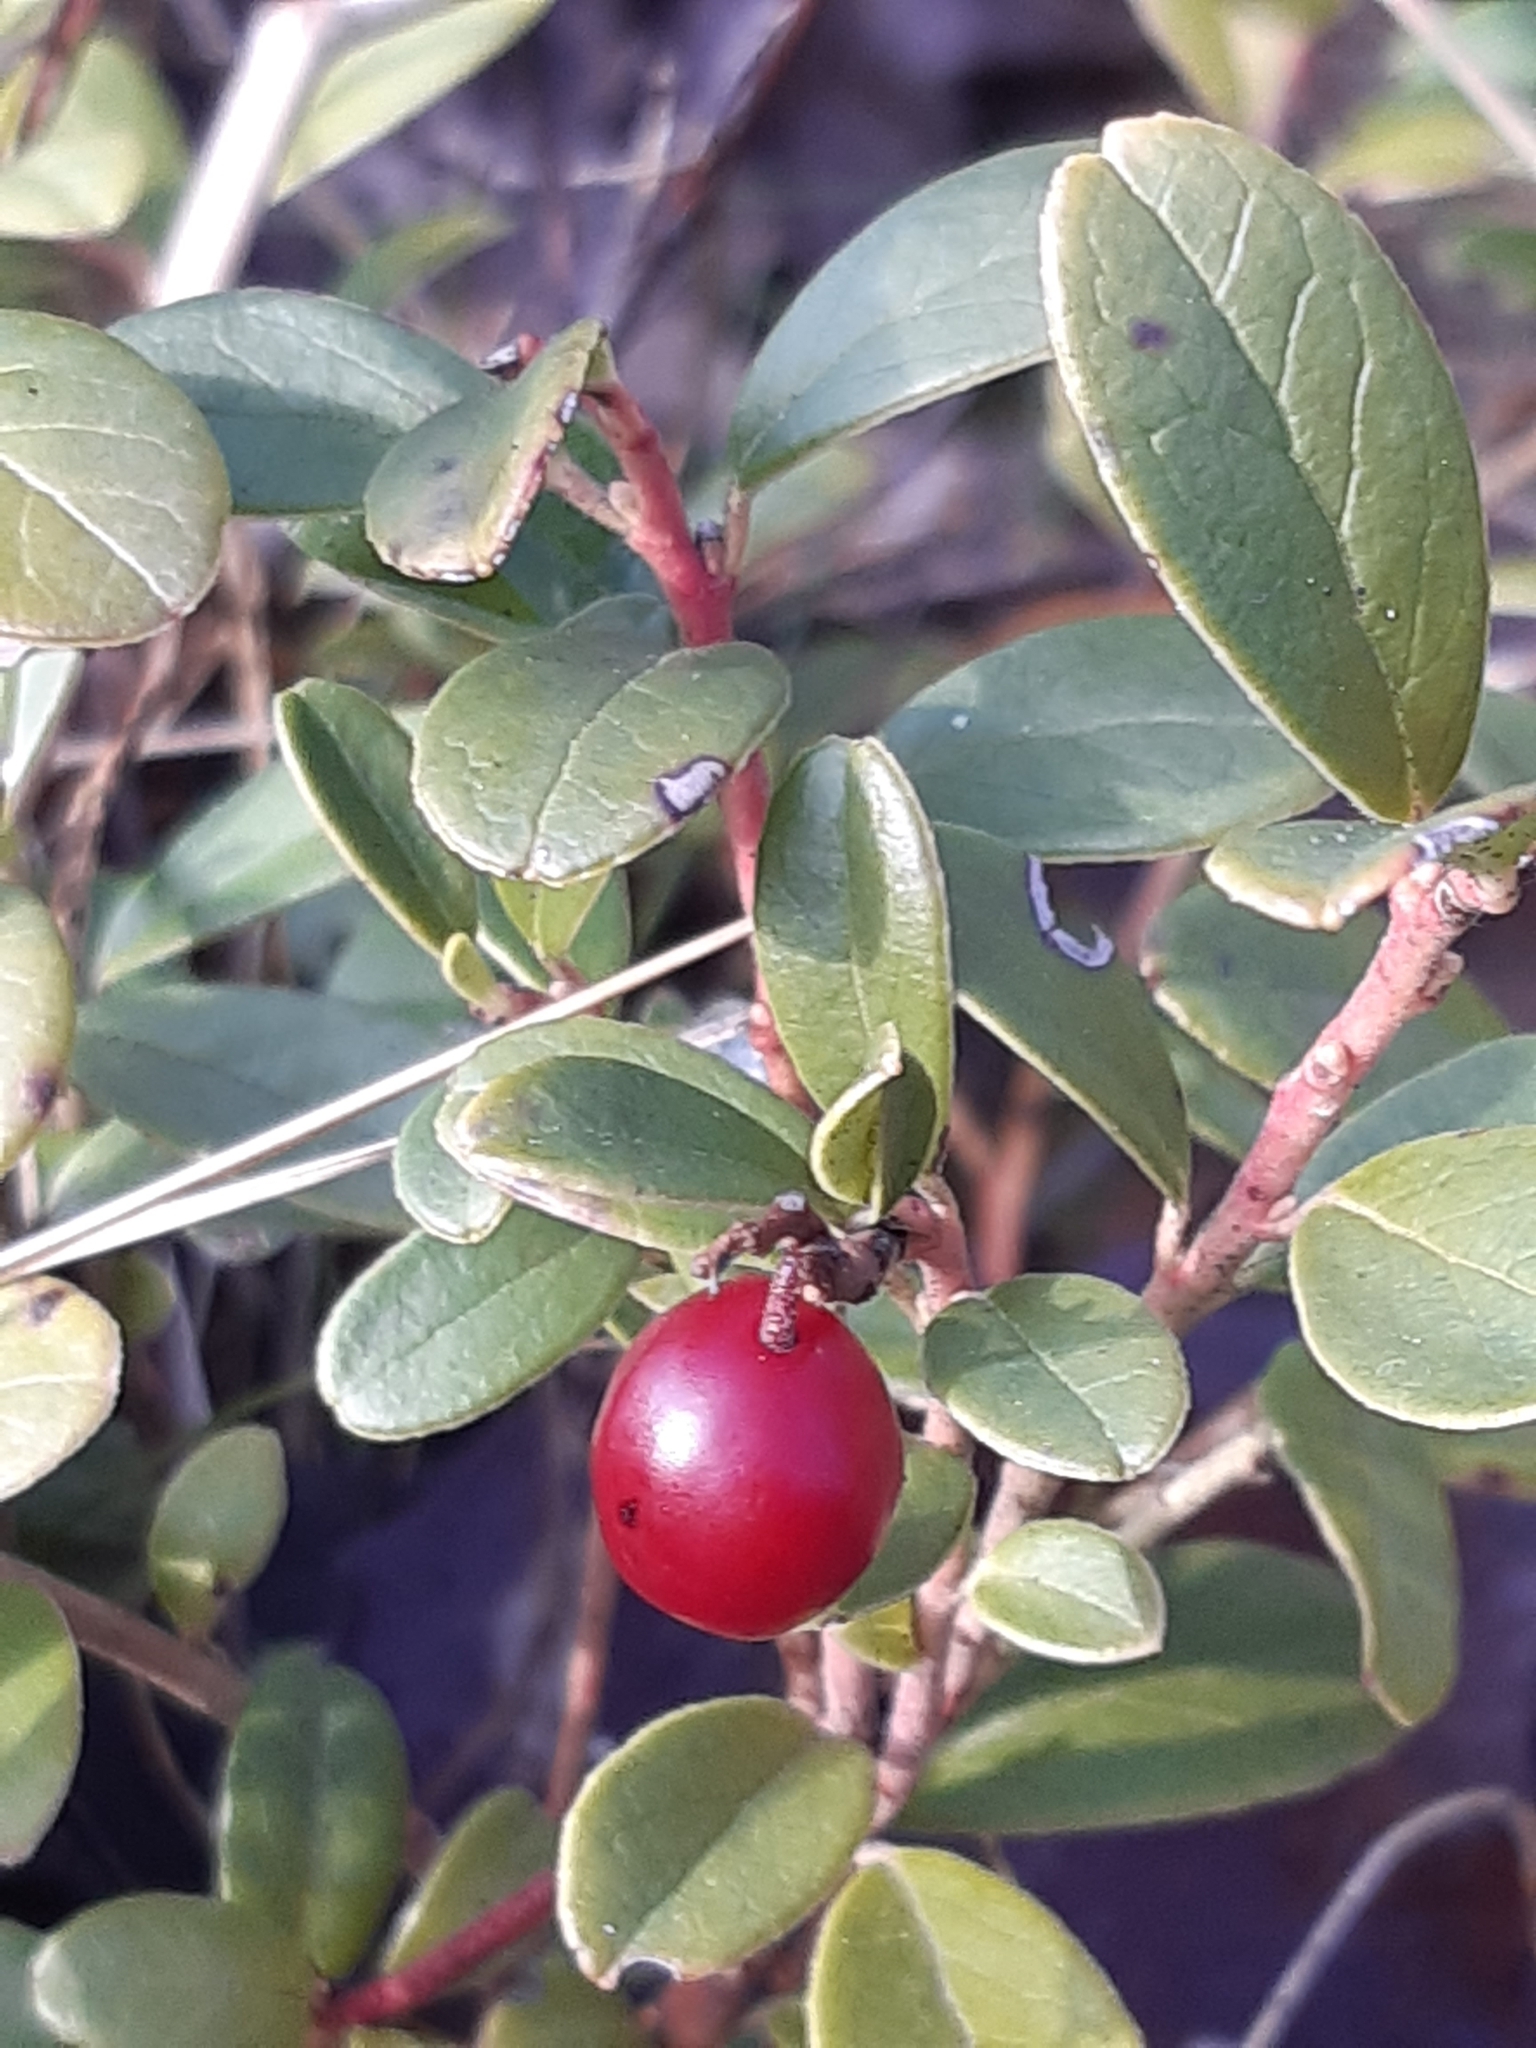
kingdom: Plantae
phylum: Tracheophyta
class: Magnoliopsida
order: Ericales
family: Ericaceae
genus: Vaccinium
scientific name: Vaccinium vitis-idaea
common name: Cowberry
